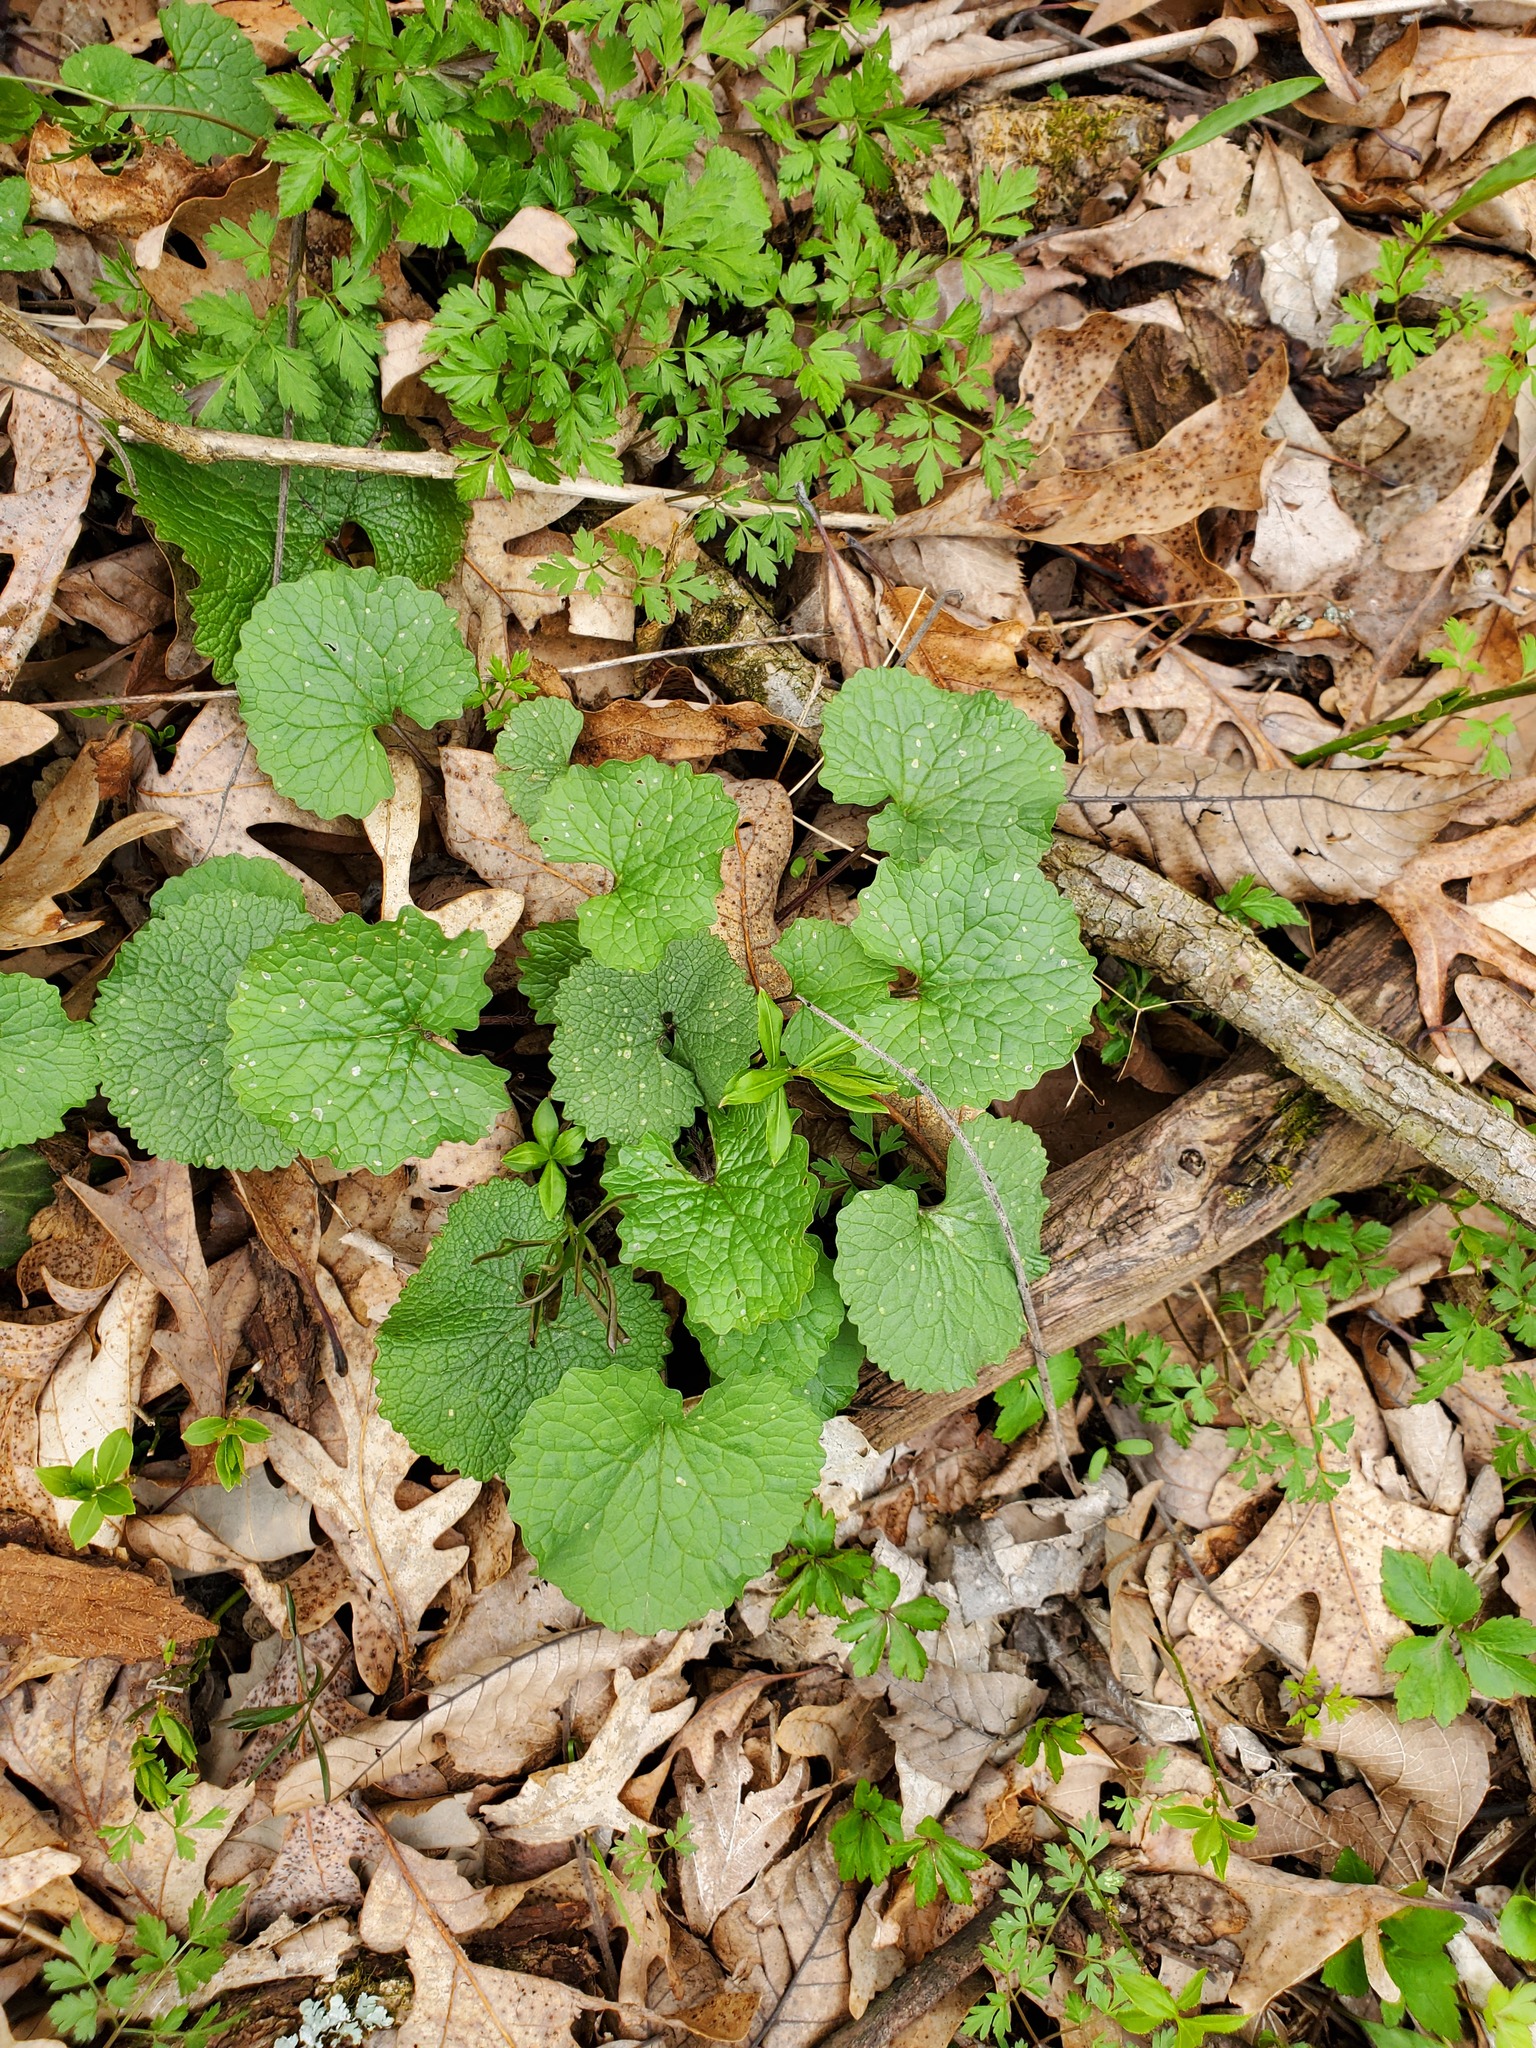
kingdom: Plantae
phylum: Tracheophyta
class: Magnoliopsida
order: Brassicales
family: Brassicaceae
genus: Alliaria
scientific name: Alliaria petiolata
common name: Garlic mustard
